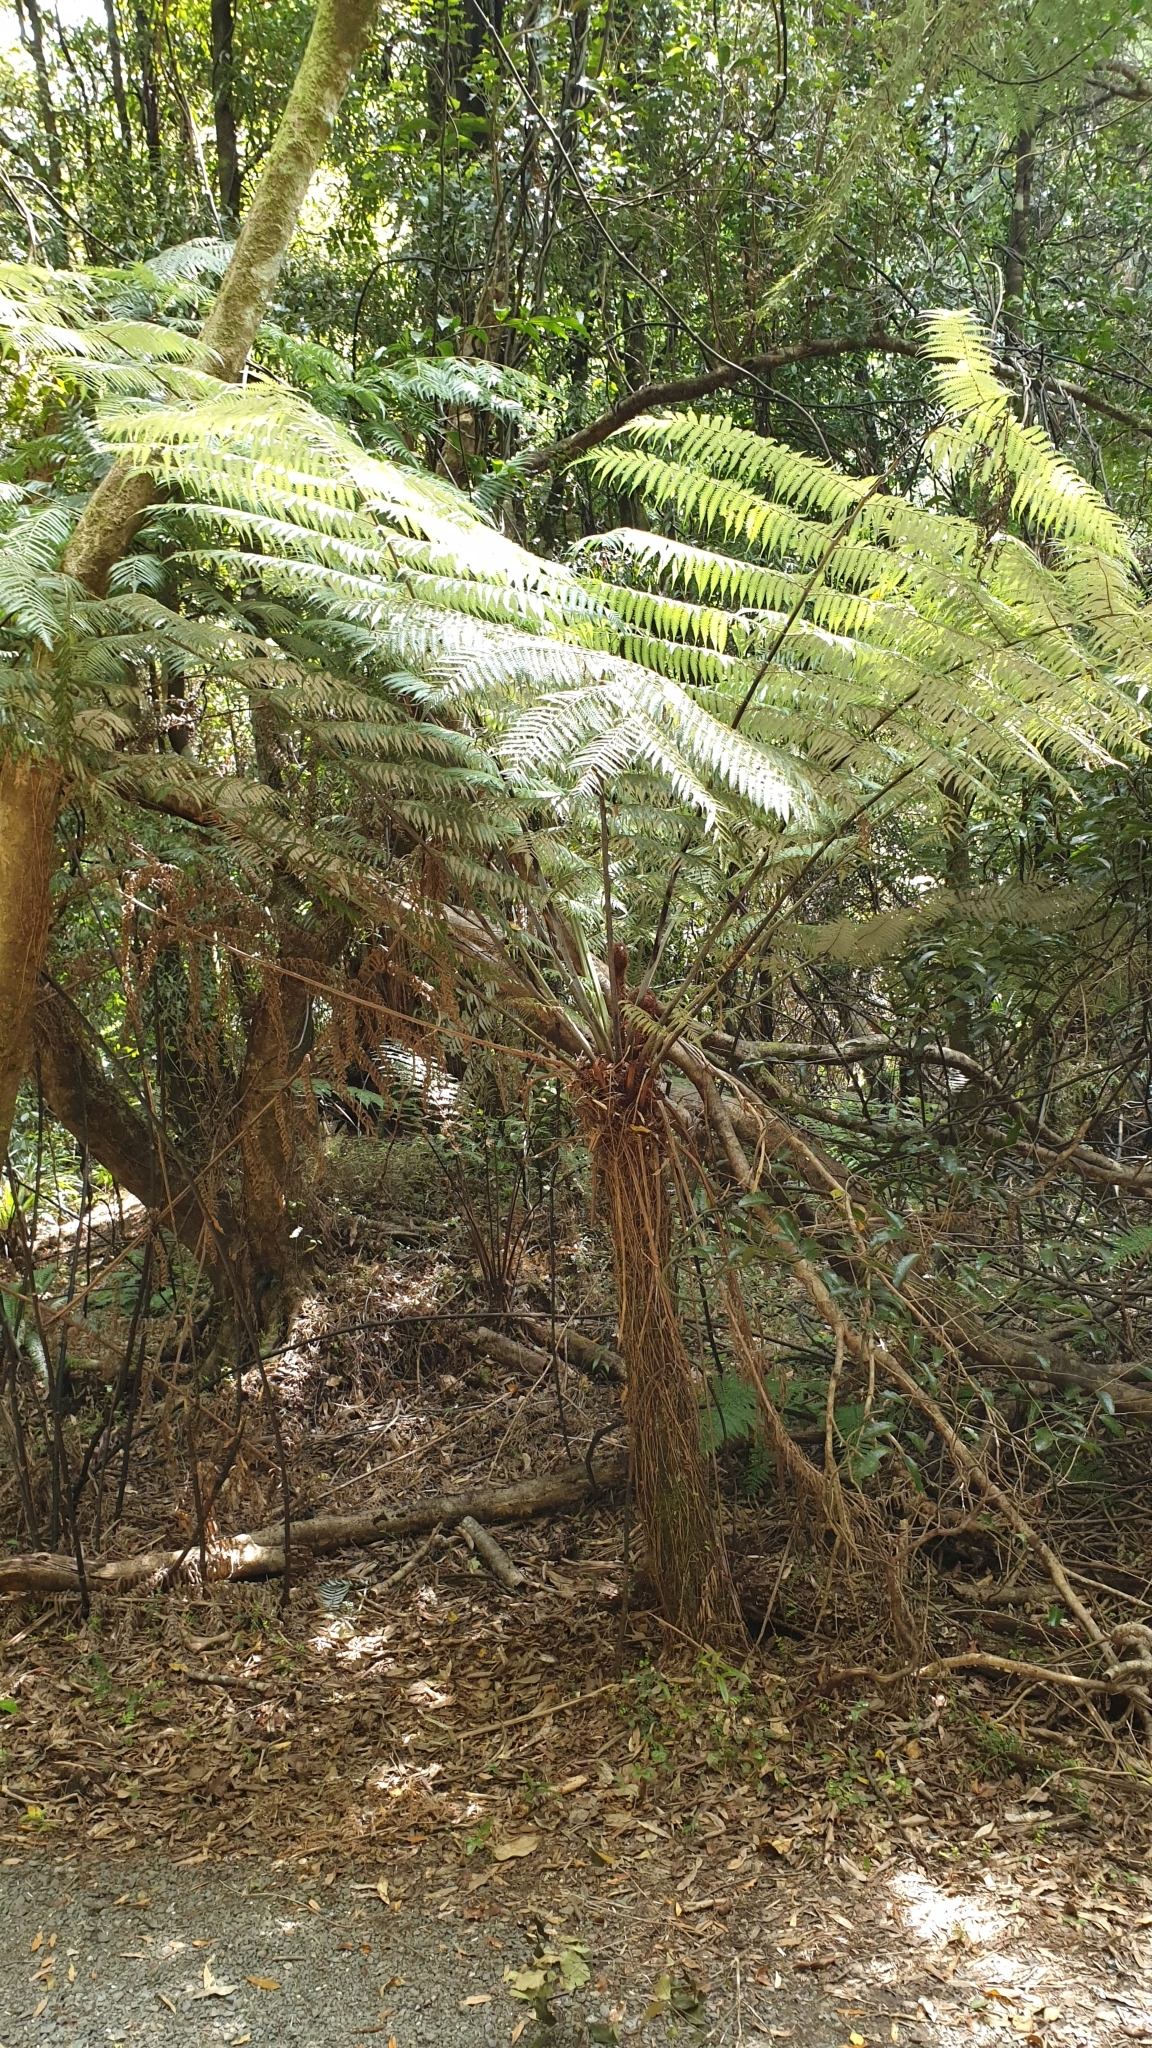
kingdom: Plantae
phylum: Tracheophyta
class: Polypodiopsida
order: Cyatheales
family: Cyatheaceae
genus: Alsophila
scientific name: Alsophila dealbata
